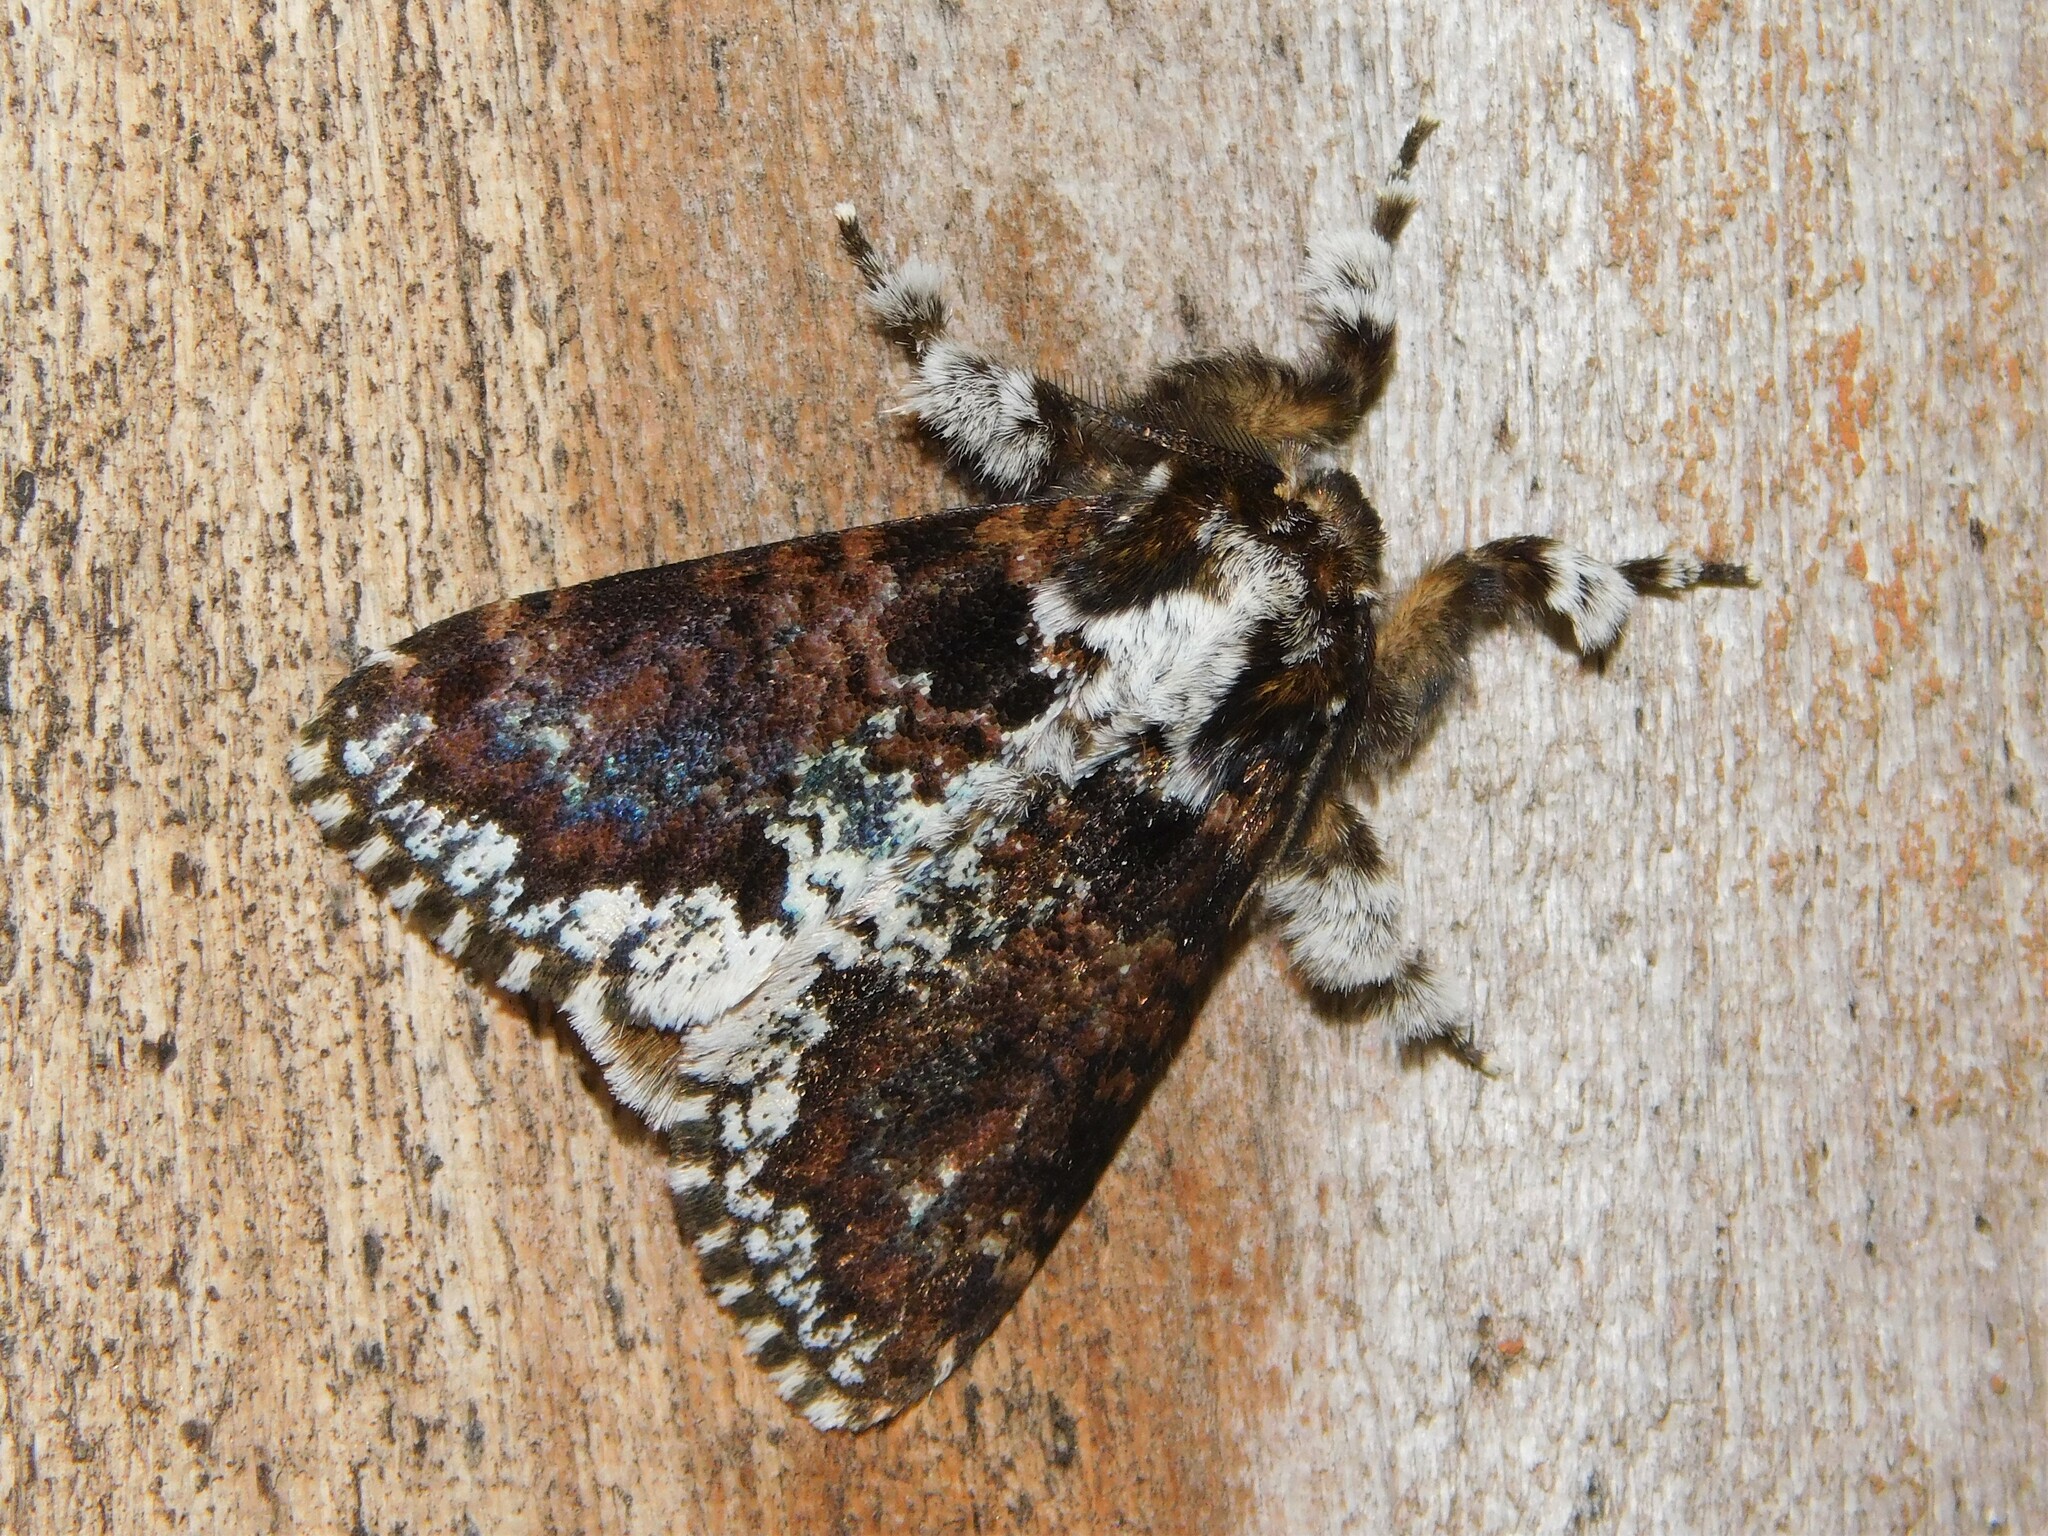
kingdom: Animalia
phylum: Arthropoda
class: Insecta
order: Lepidoptera
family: Erebidae
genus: Dasychira
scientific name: Dasychira goodii
